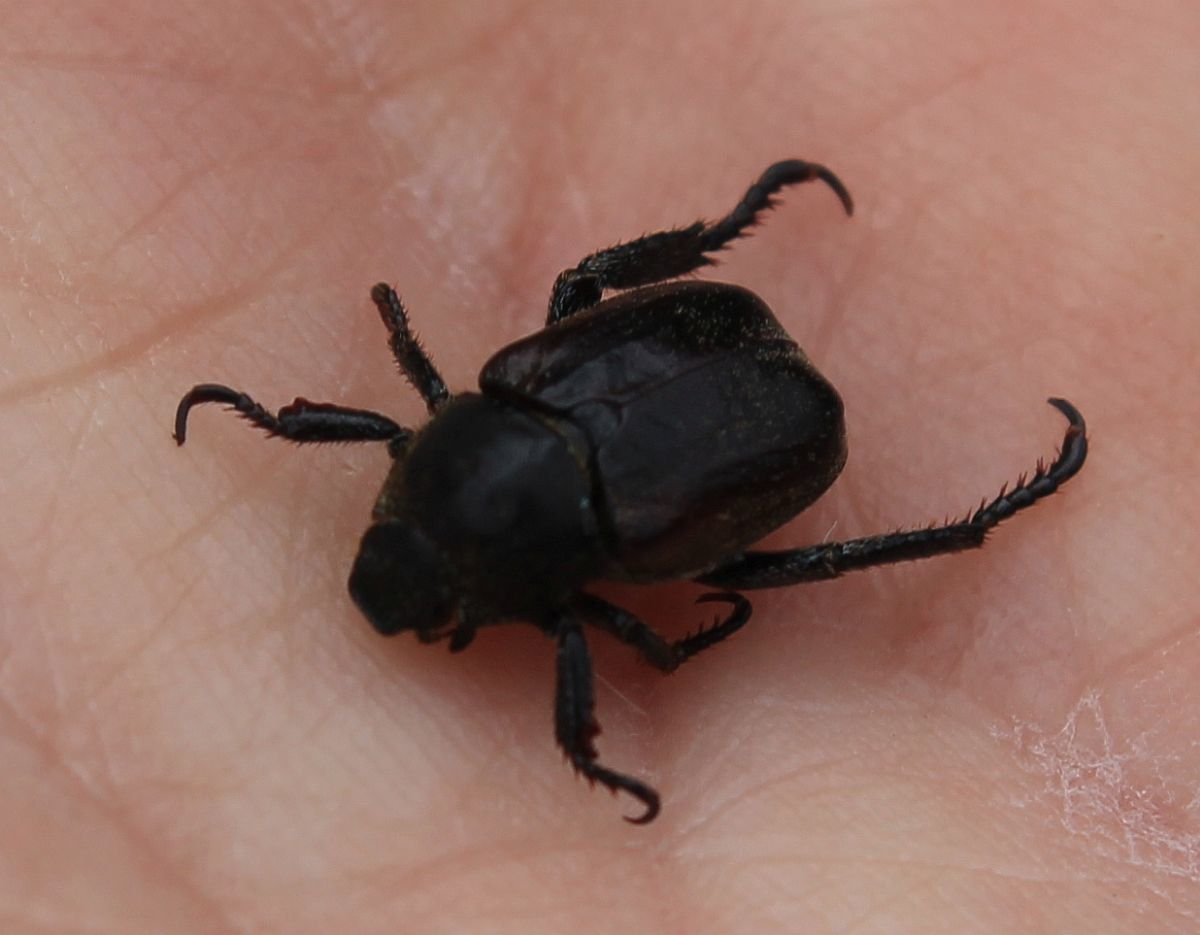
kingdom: Animalia
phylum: Arthropoda
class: Insecta
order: Coleoptera
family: Scarabaeidae
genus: Hoplia
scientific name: Hoplia philanthus
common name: Welsh chafer
